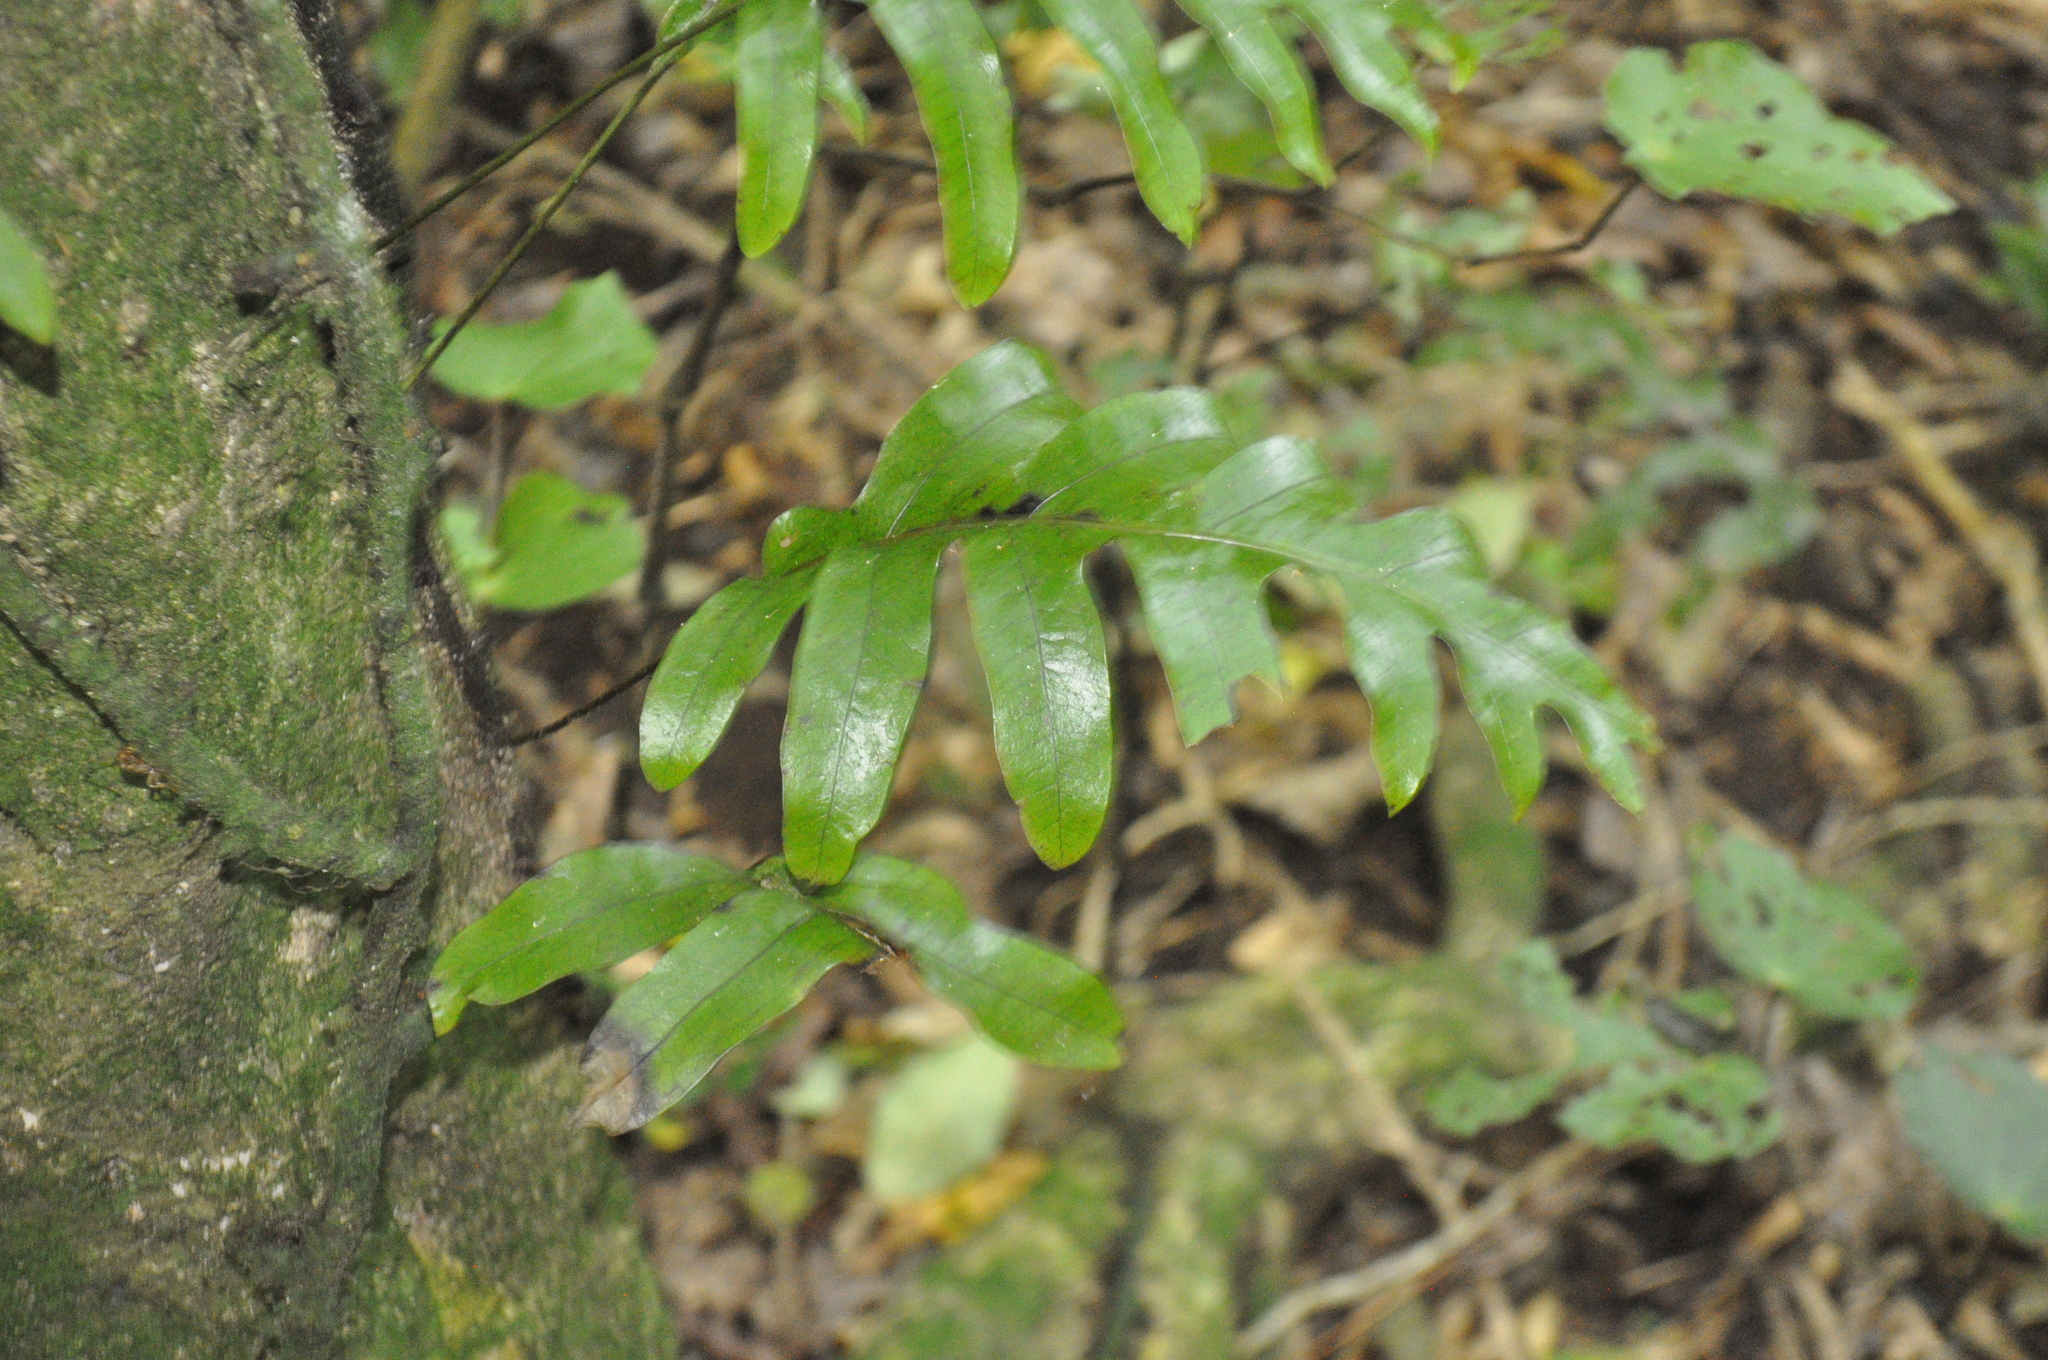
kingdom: Plantae
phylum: Tracheophyta
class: Polypodiopsida
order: Polypodiales
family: Polypodiaceae
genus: Lecanopteris
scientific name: Lecanopteris pustulata
